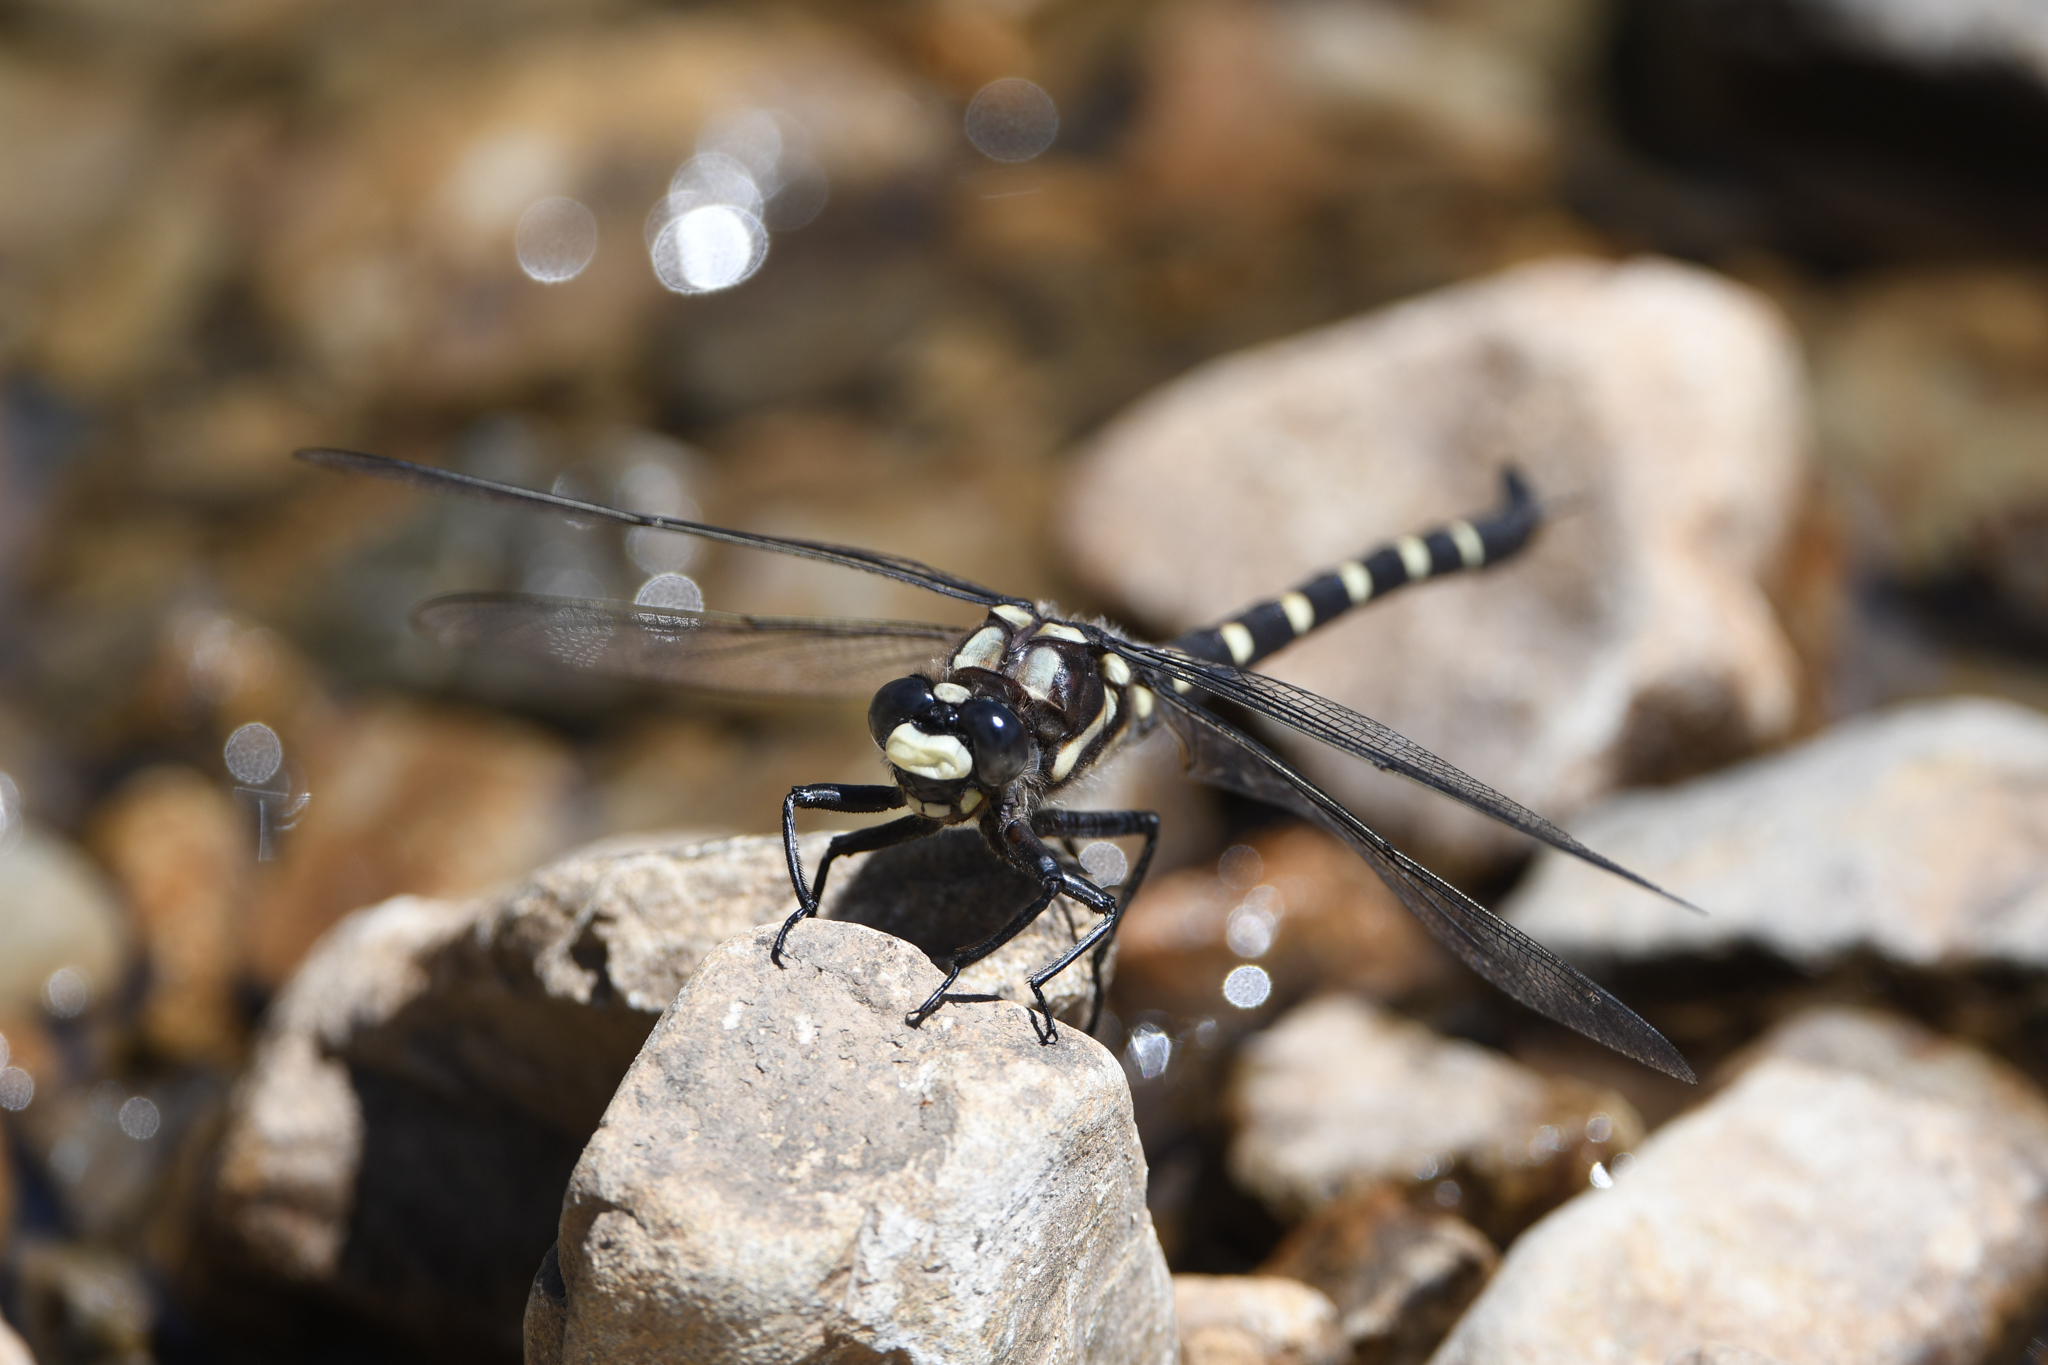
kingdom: Animalia
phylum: Arthropoda
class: Insecta
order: Odonata
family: Petaluridae
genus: Uropetala
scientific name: Uropetala chiltoni
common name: Mountain giant dragonfly
